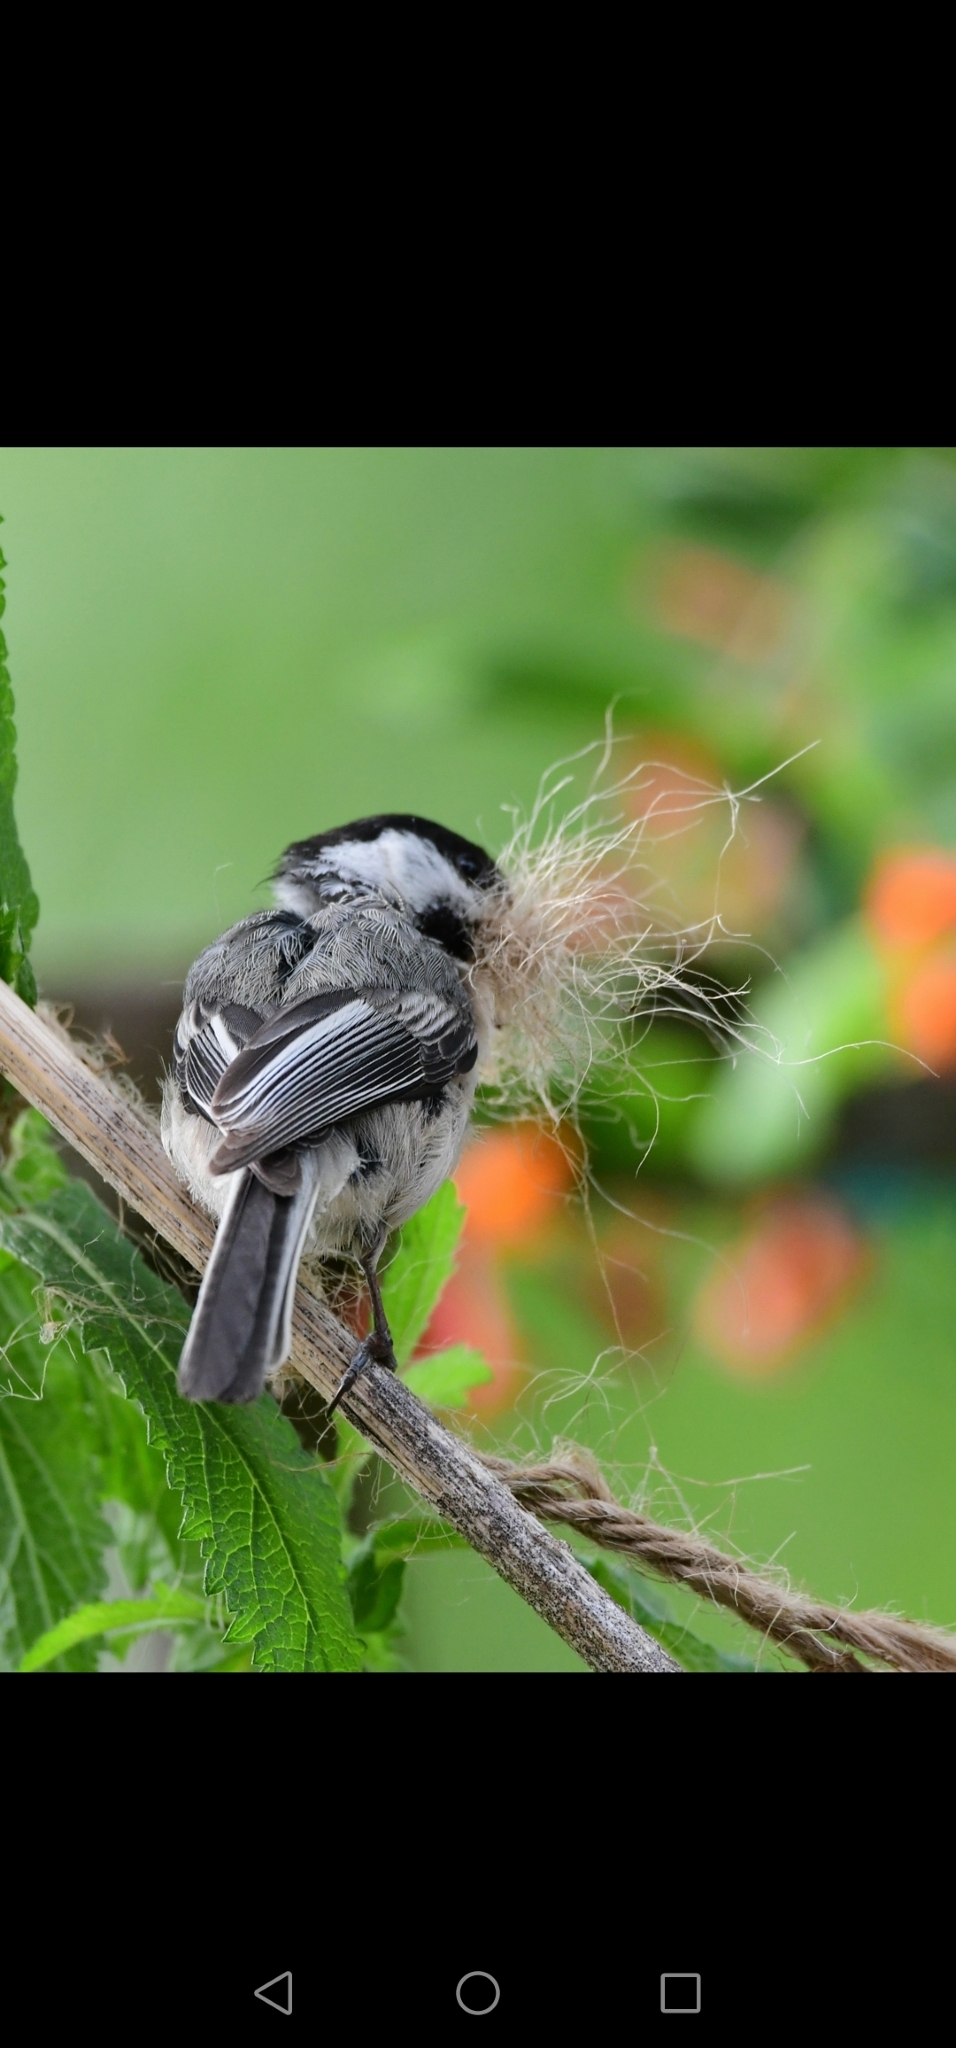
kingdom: Animalia
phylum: Chordata
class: Aves
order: Passeriformes
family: Paridae
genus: Poecile
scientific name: Poecile atricapillus
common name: Black-capped chickadee
